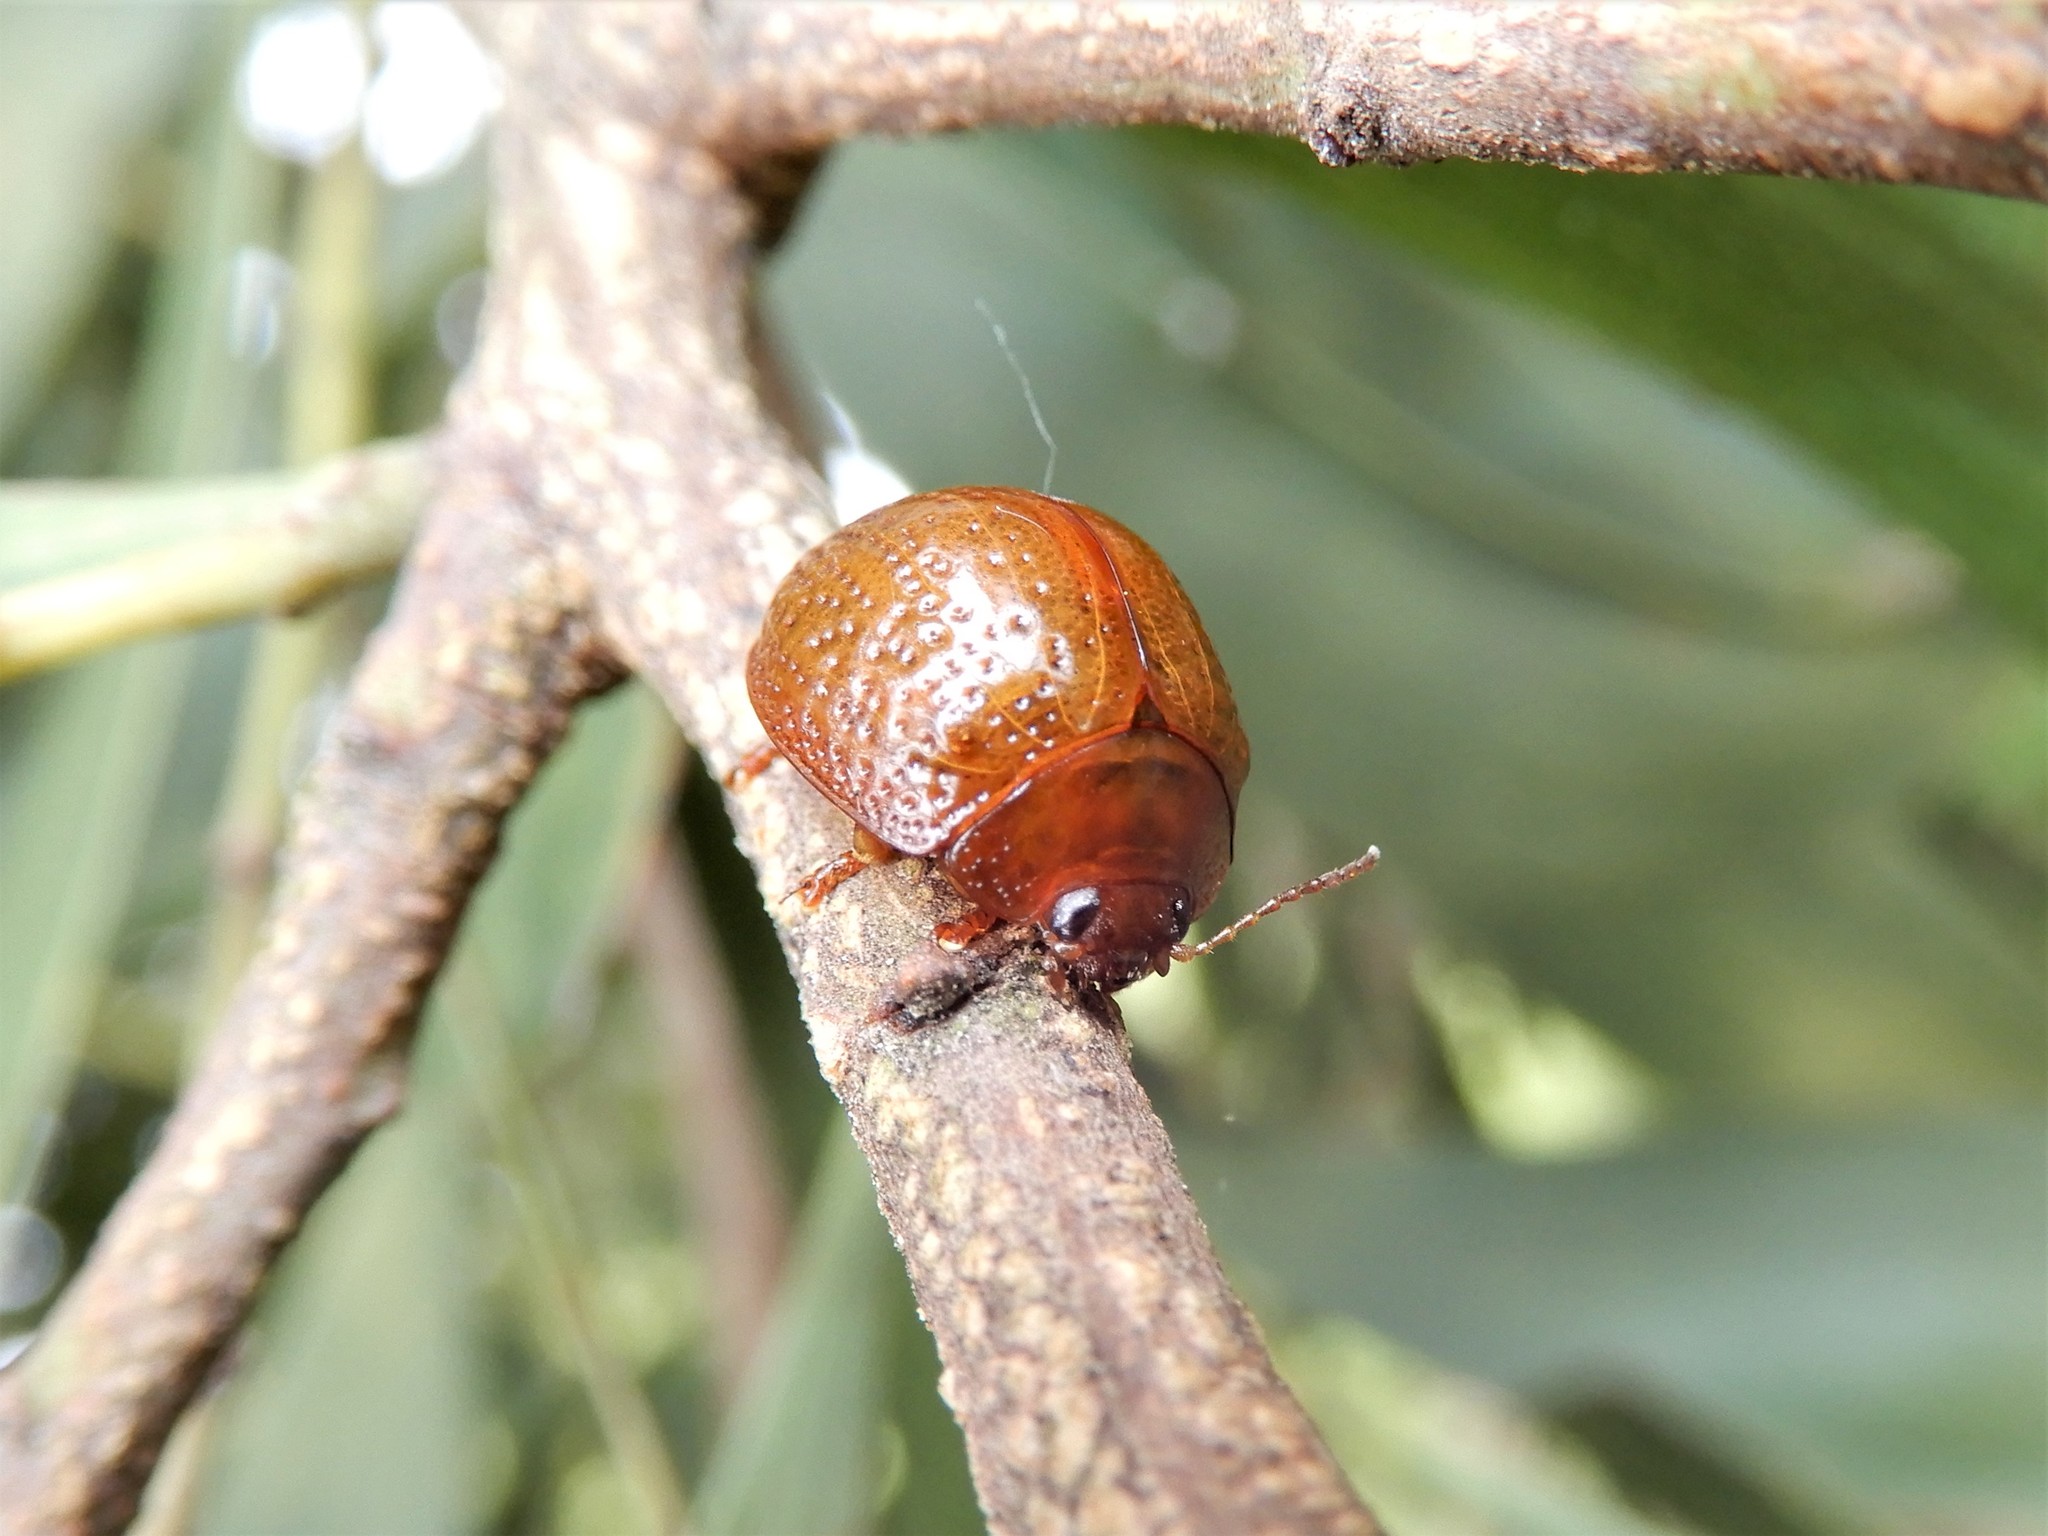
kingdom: Animalia
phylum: Arthropoda
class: Insecta
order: Coleoptera
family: Chrysomelidae
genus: Dicranosterna
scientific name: Dicranosterna
